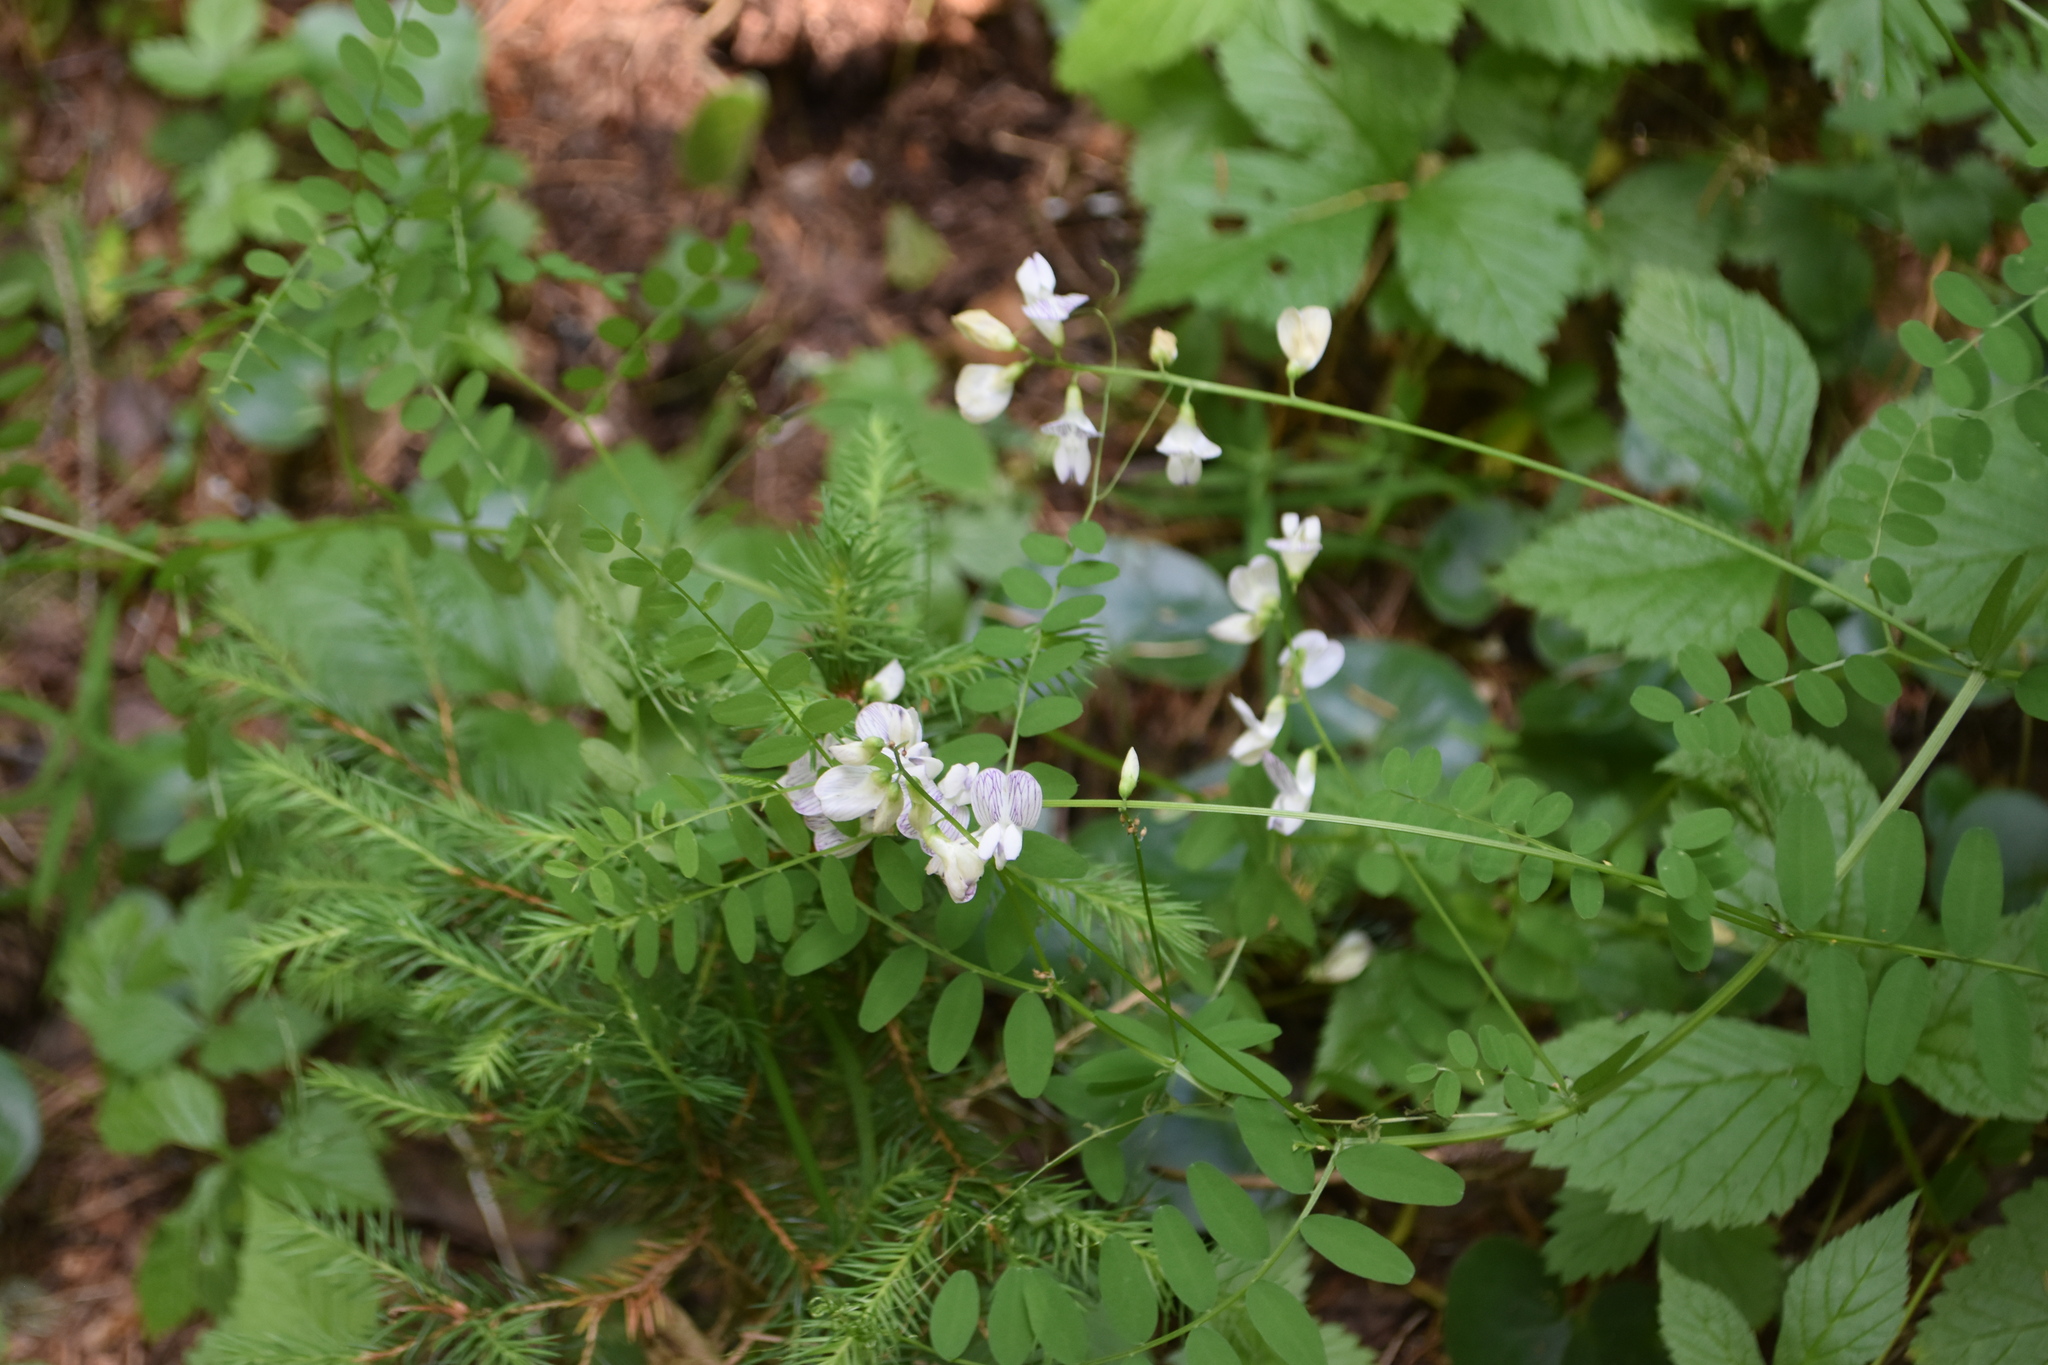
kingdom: Plantae
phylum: Tracheophyta
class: Magnoliopsida
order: Fabales
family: Fabaceae
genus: Vicia
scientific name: Vicia sylvatica
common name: Wood vetch
